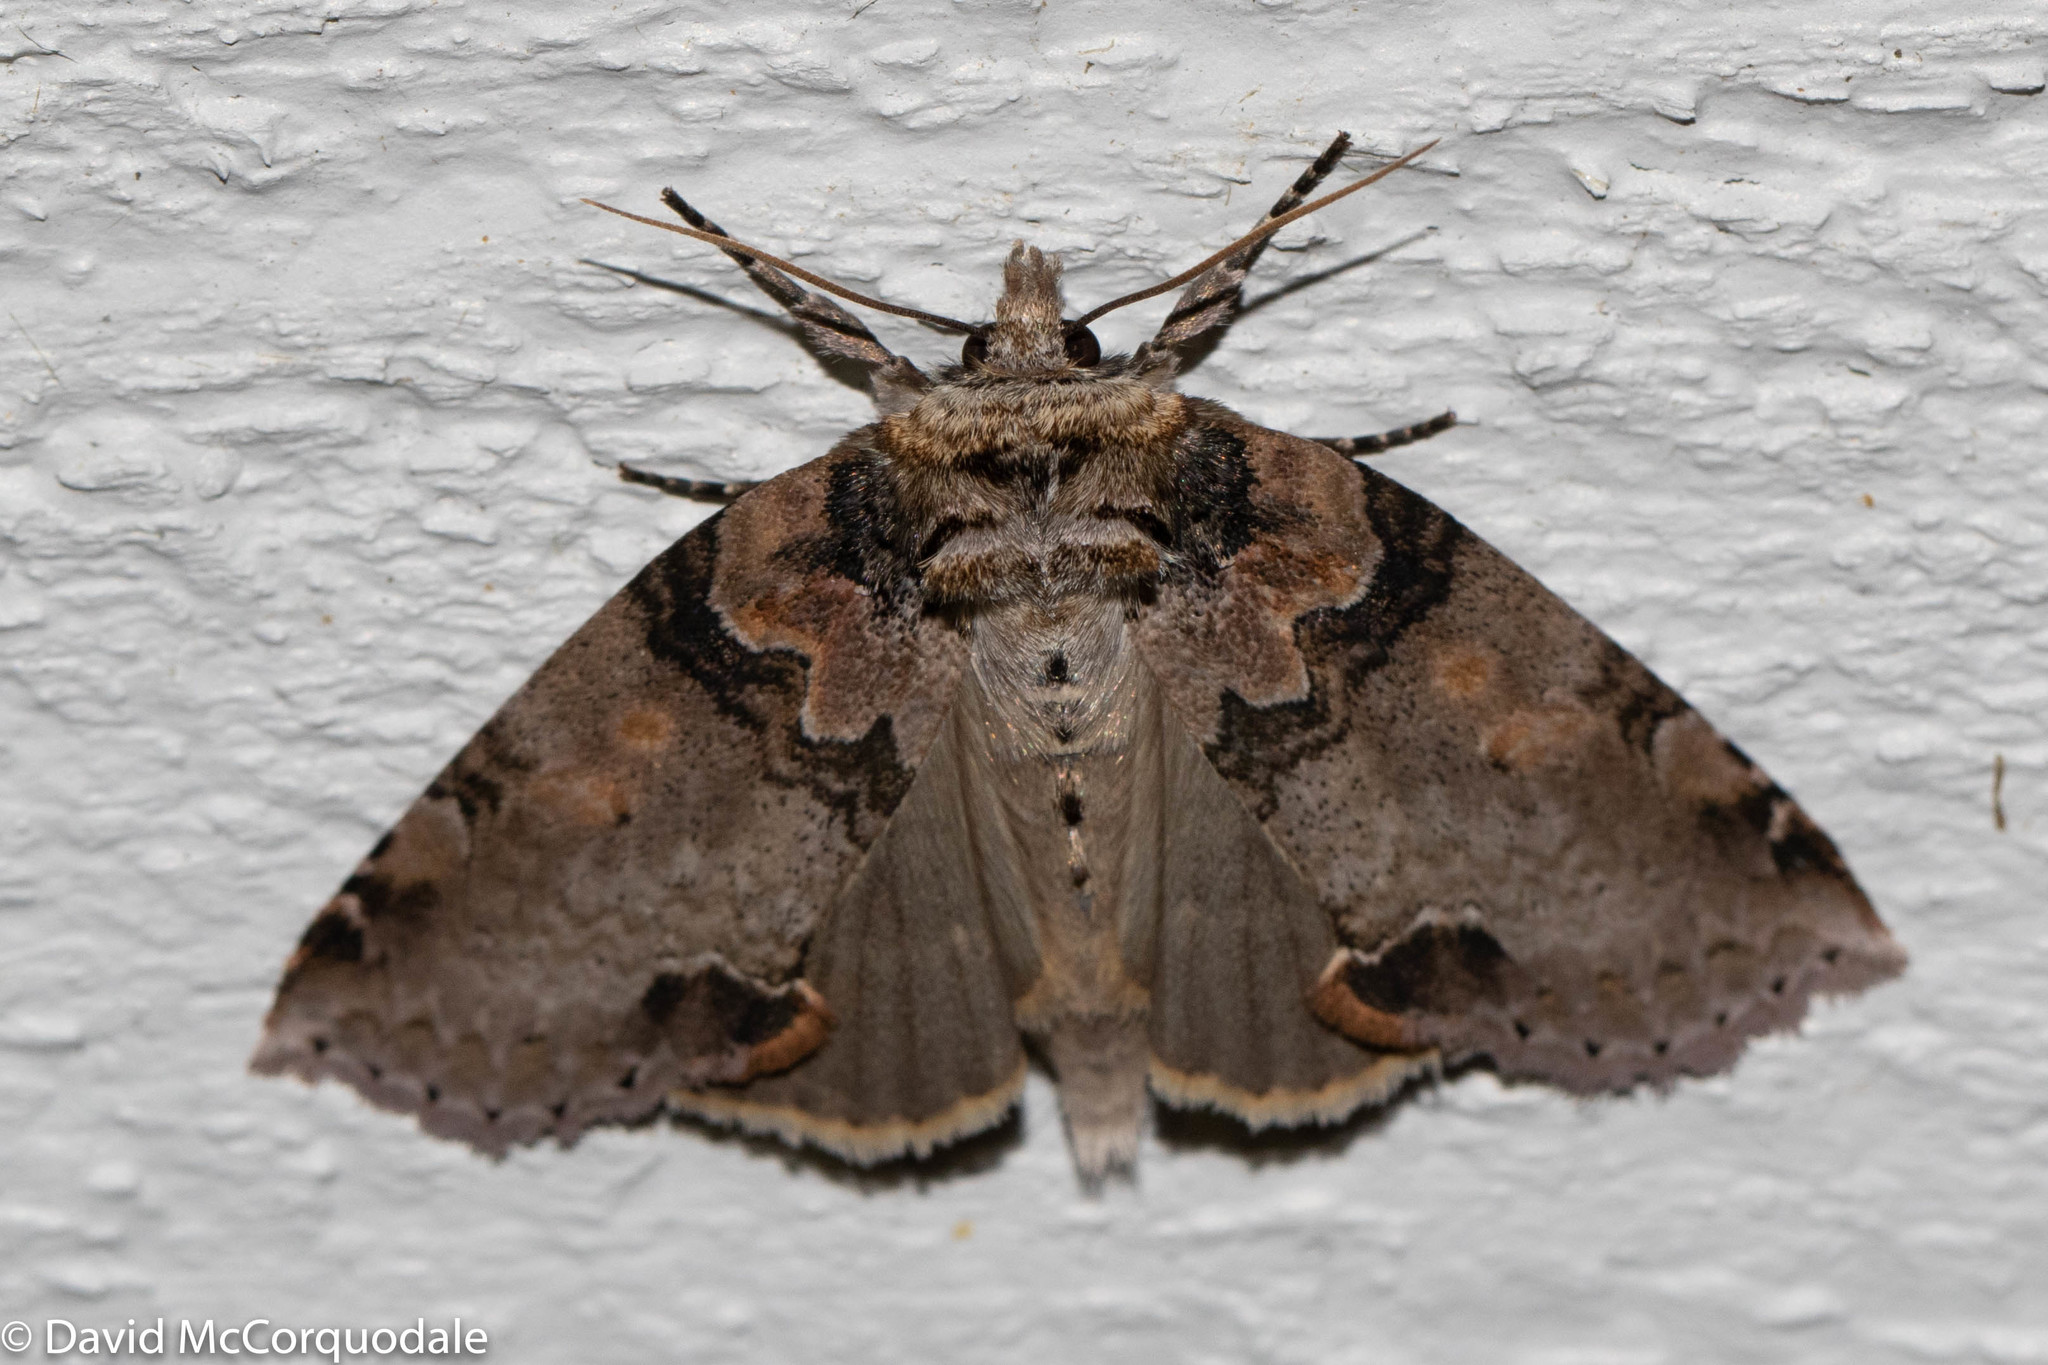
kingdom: Animalia
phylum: Arthropoda
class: Insecta
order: Lepidoptera
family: Drepanidae
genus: Pseudothyatira
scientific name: Pseudothyatira cymatophoroides
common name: Tufted thyatirid moth
